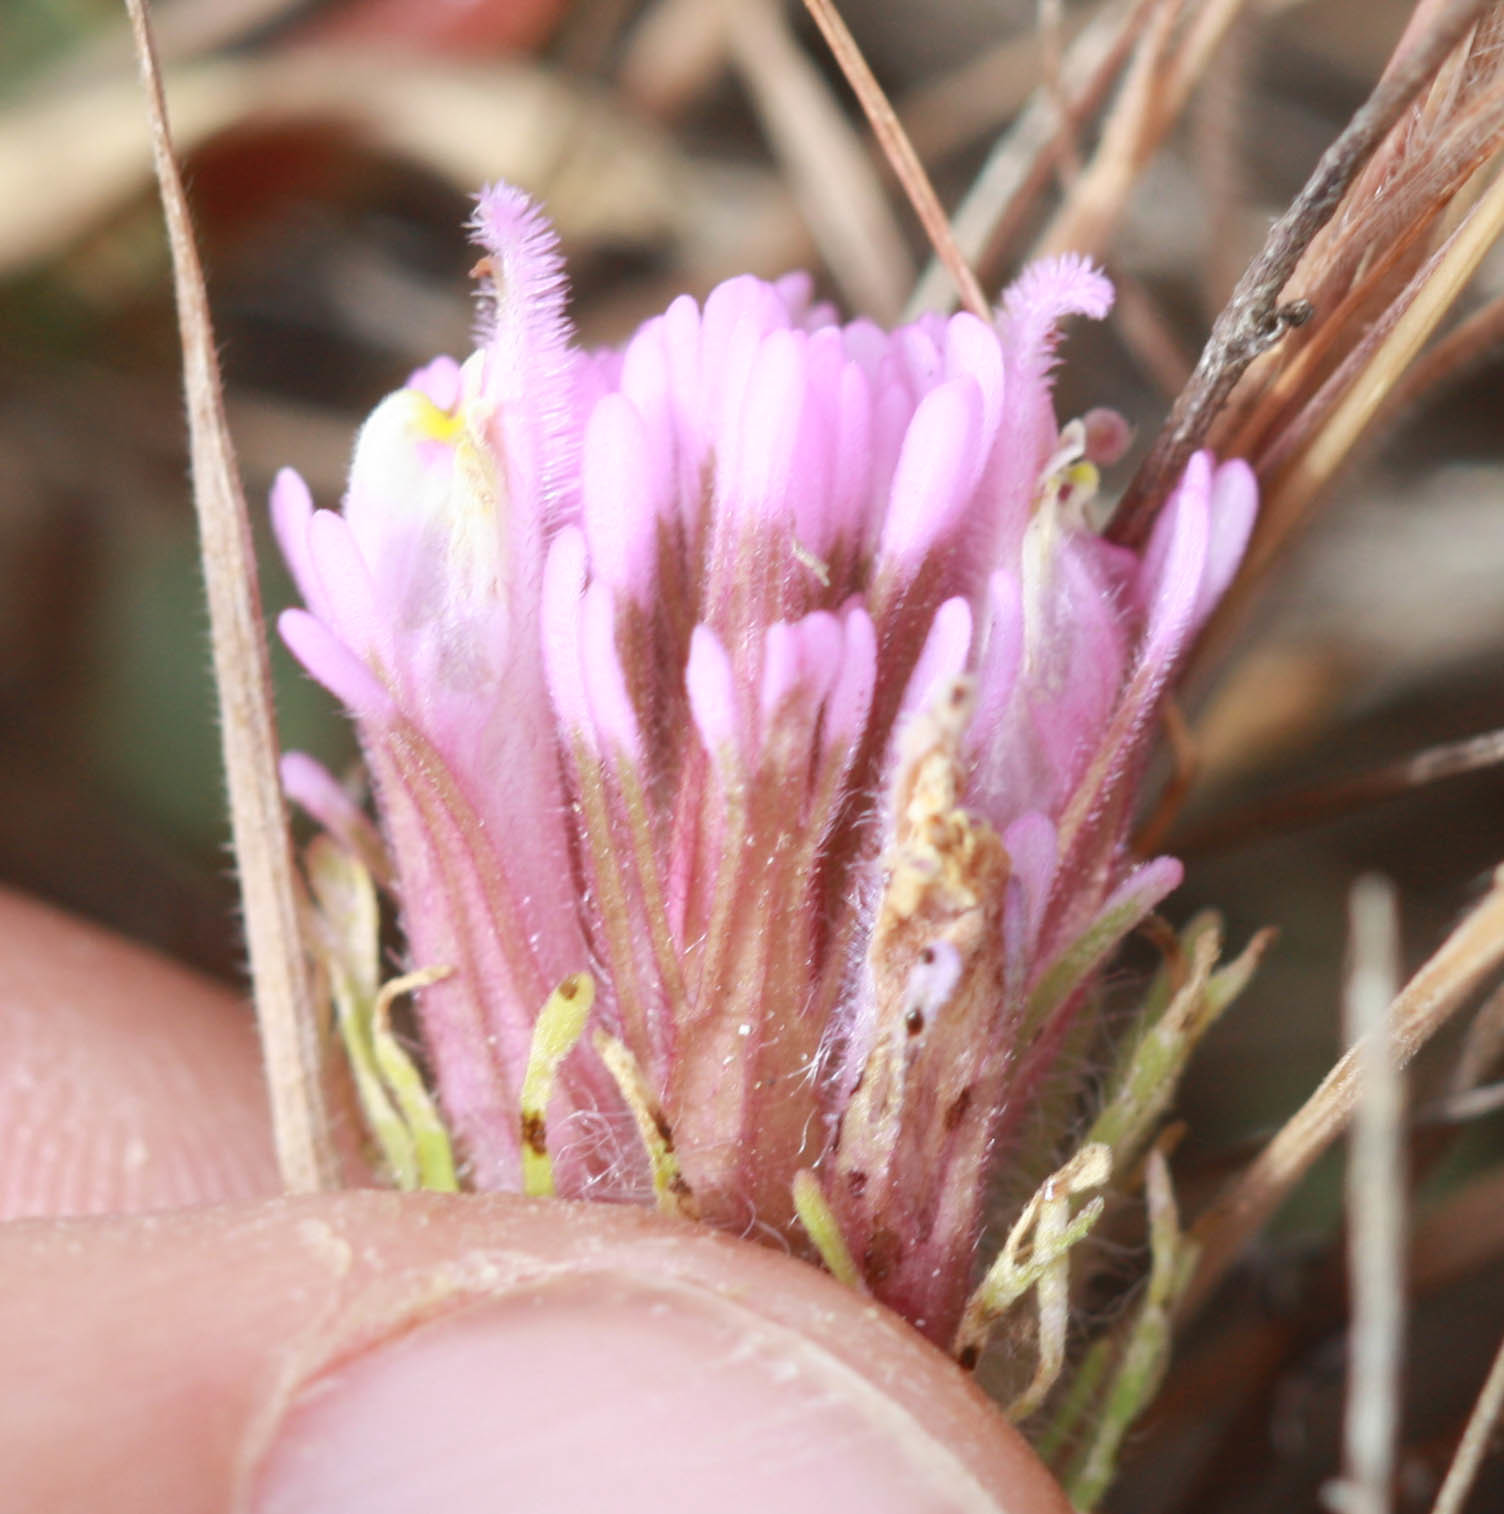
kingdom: Plantae
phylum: Tracheophyta
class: Magnoliopsida
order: Lamiales
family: Orobanchaceae
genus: Castilleja
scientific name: Castilleja exserta
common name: Purple owl-clover
